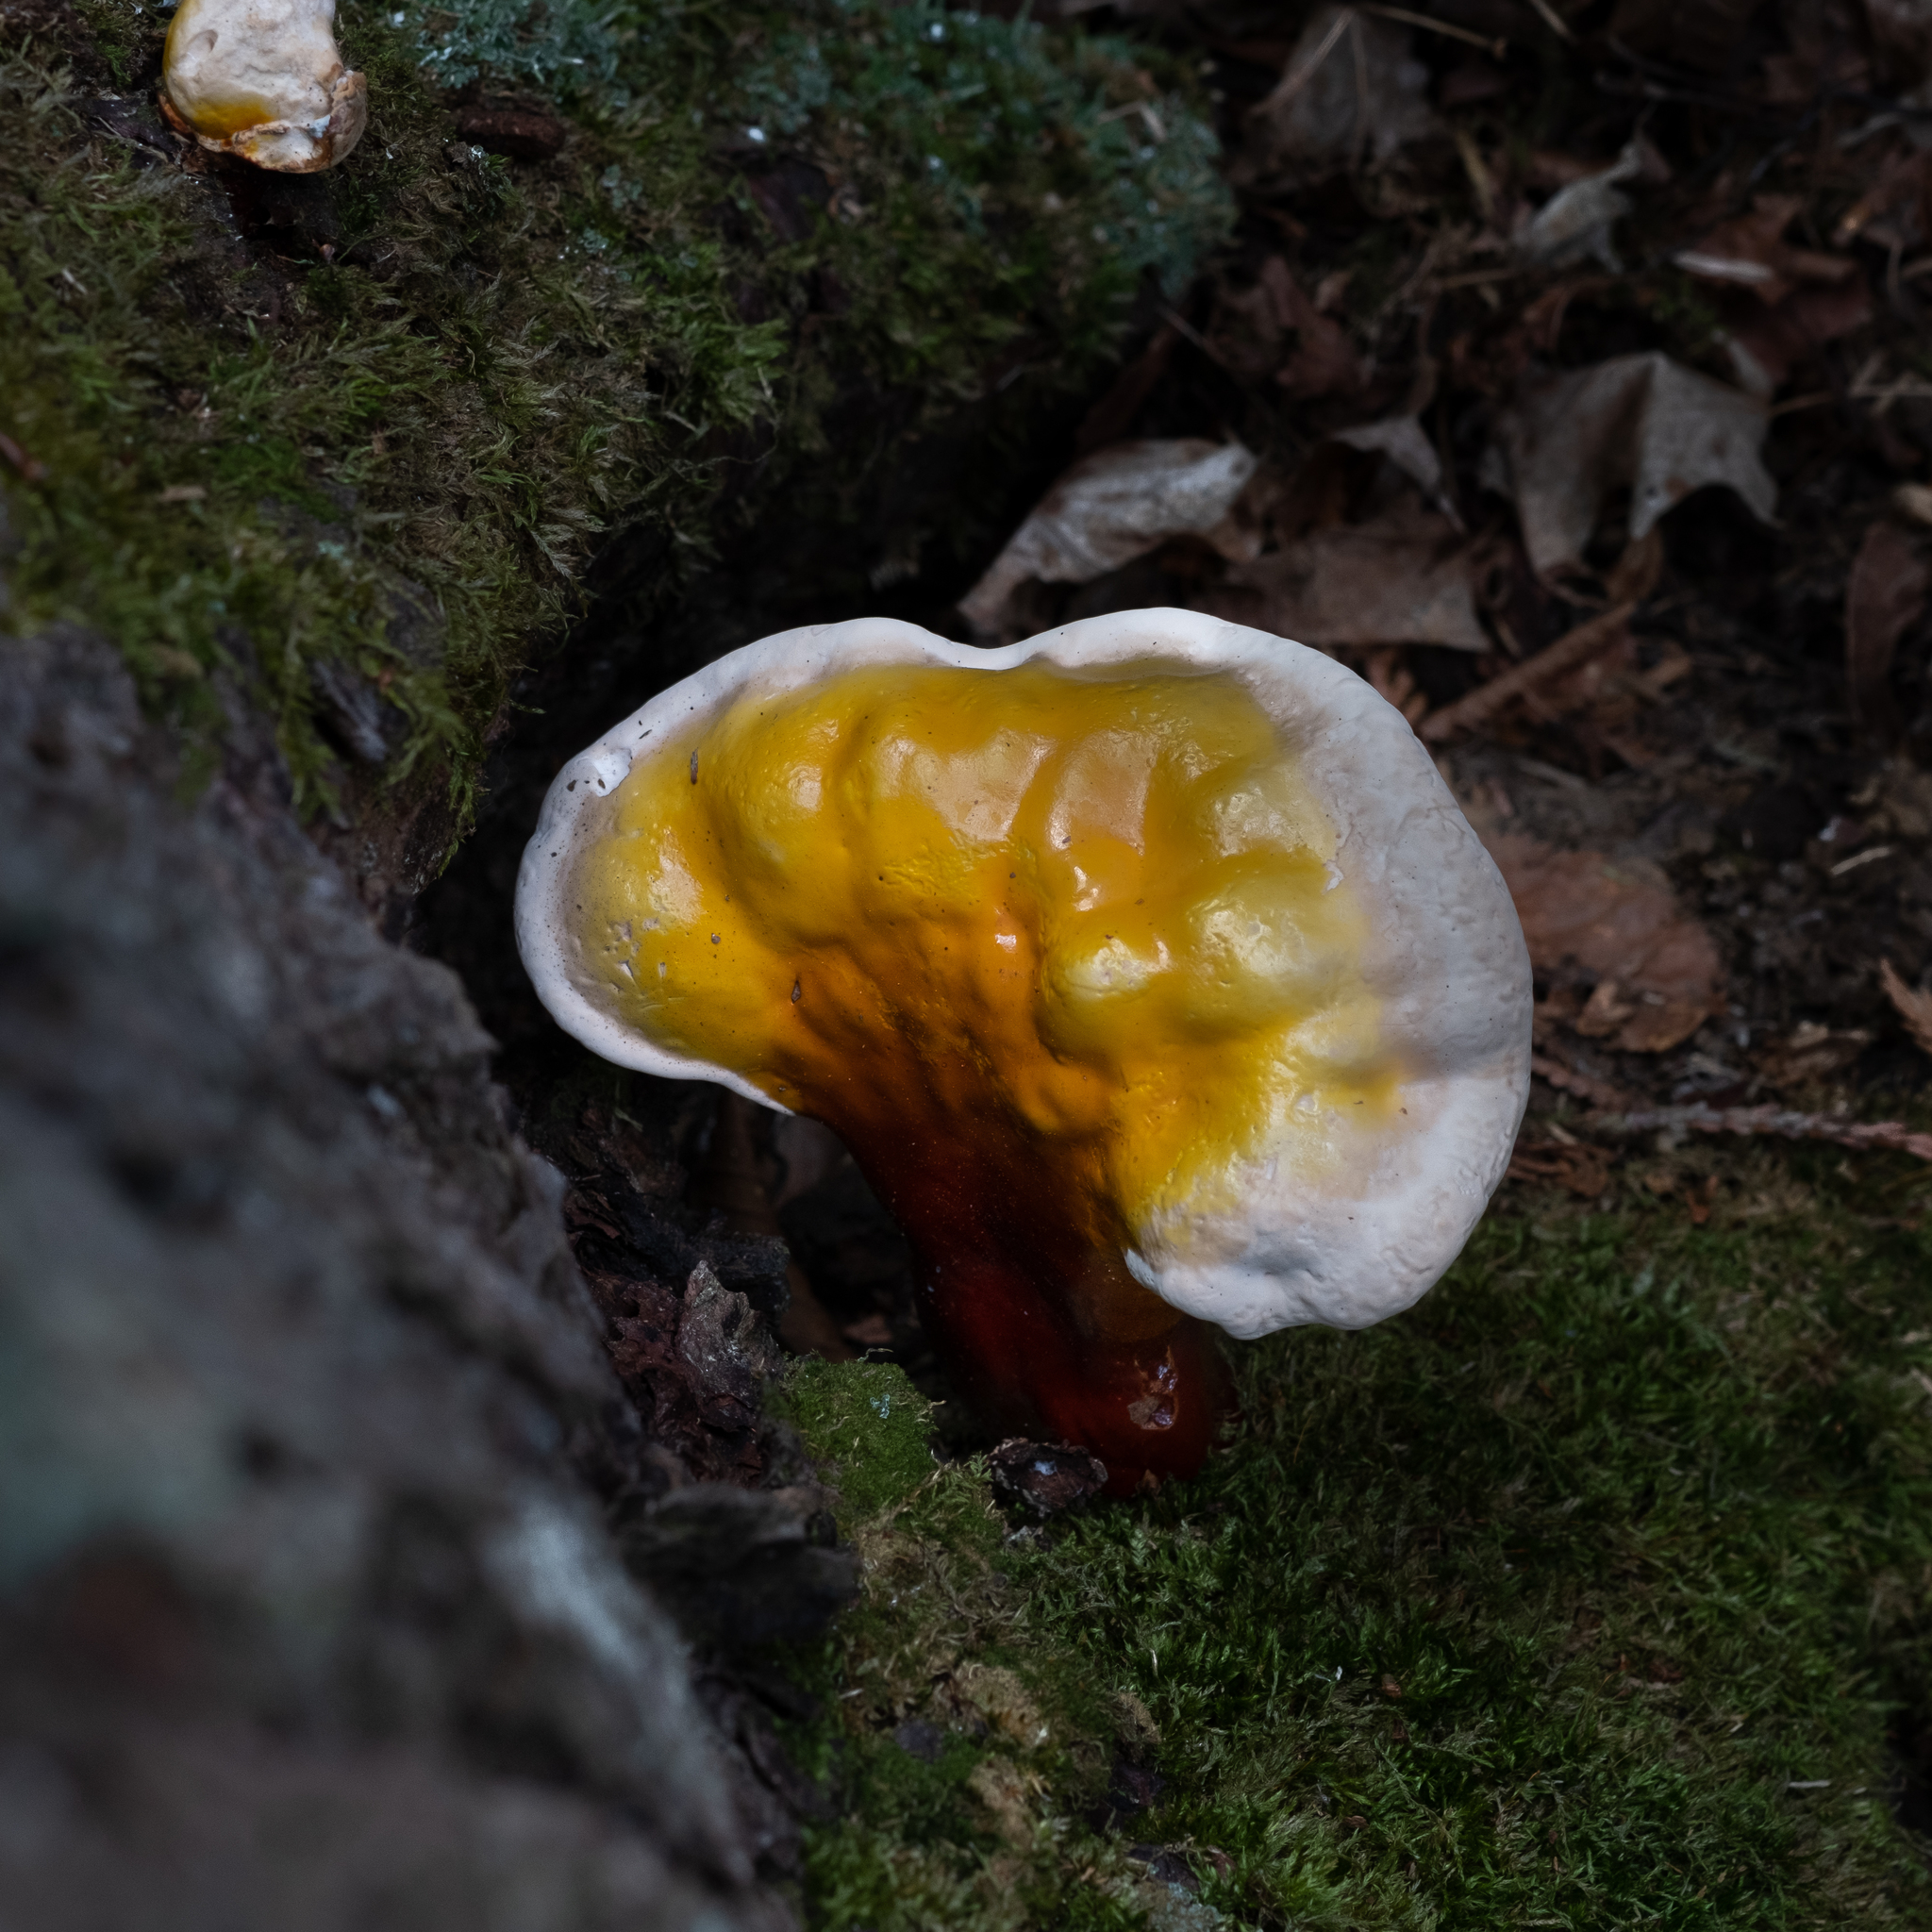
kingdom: Fungi
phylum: Basidiomycota
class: Agaricomycetes
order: Polyporales
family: Polyporaceae
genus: Ganoderma
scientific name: Ganoderma tsugae
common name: Hemlock varnish shelf
